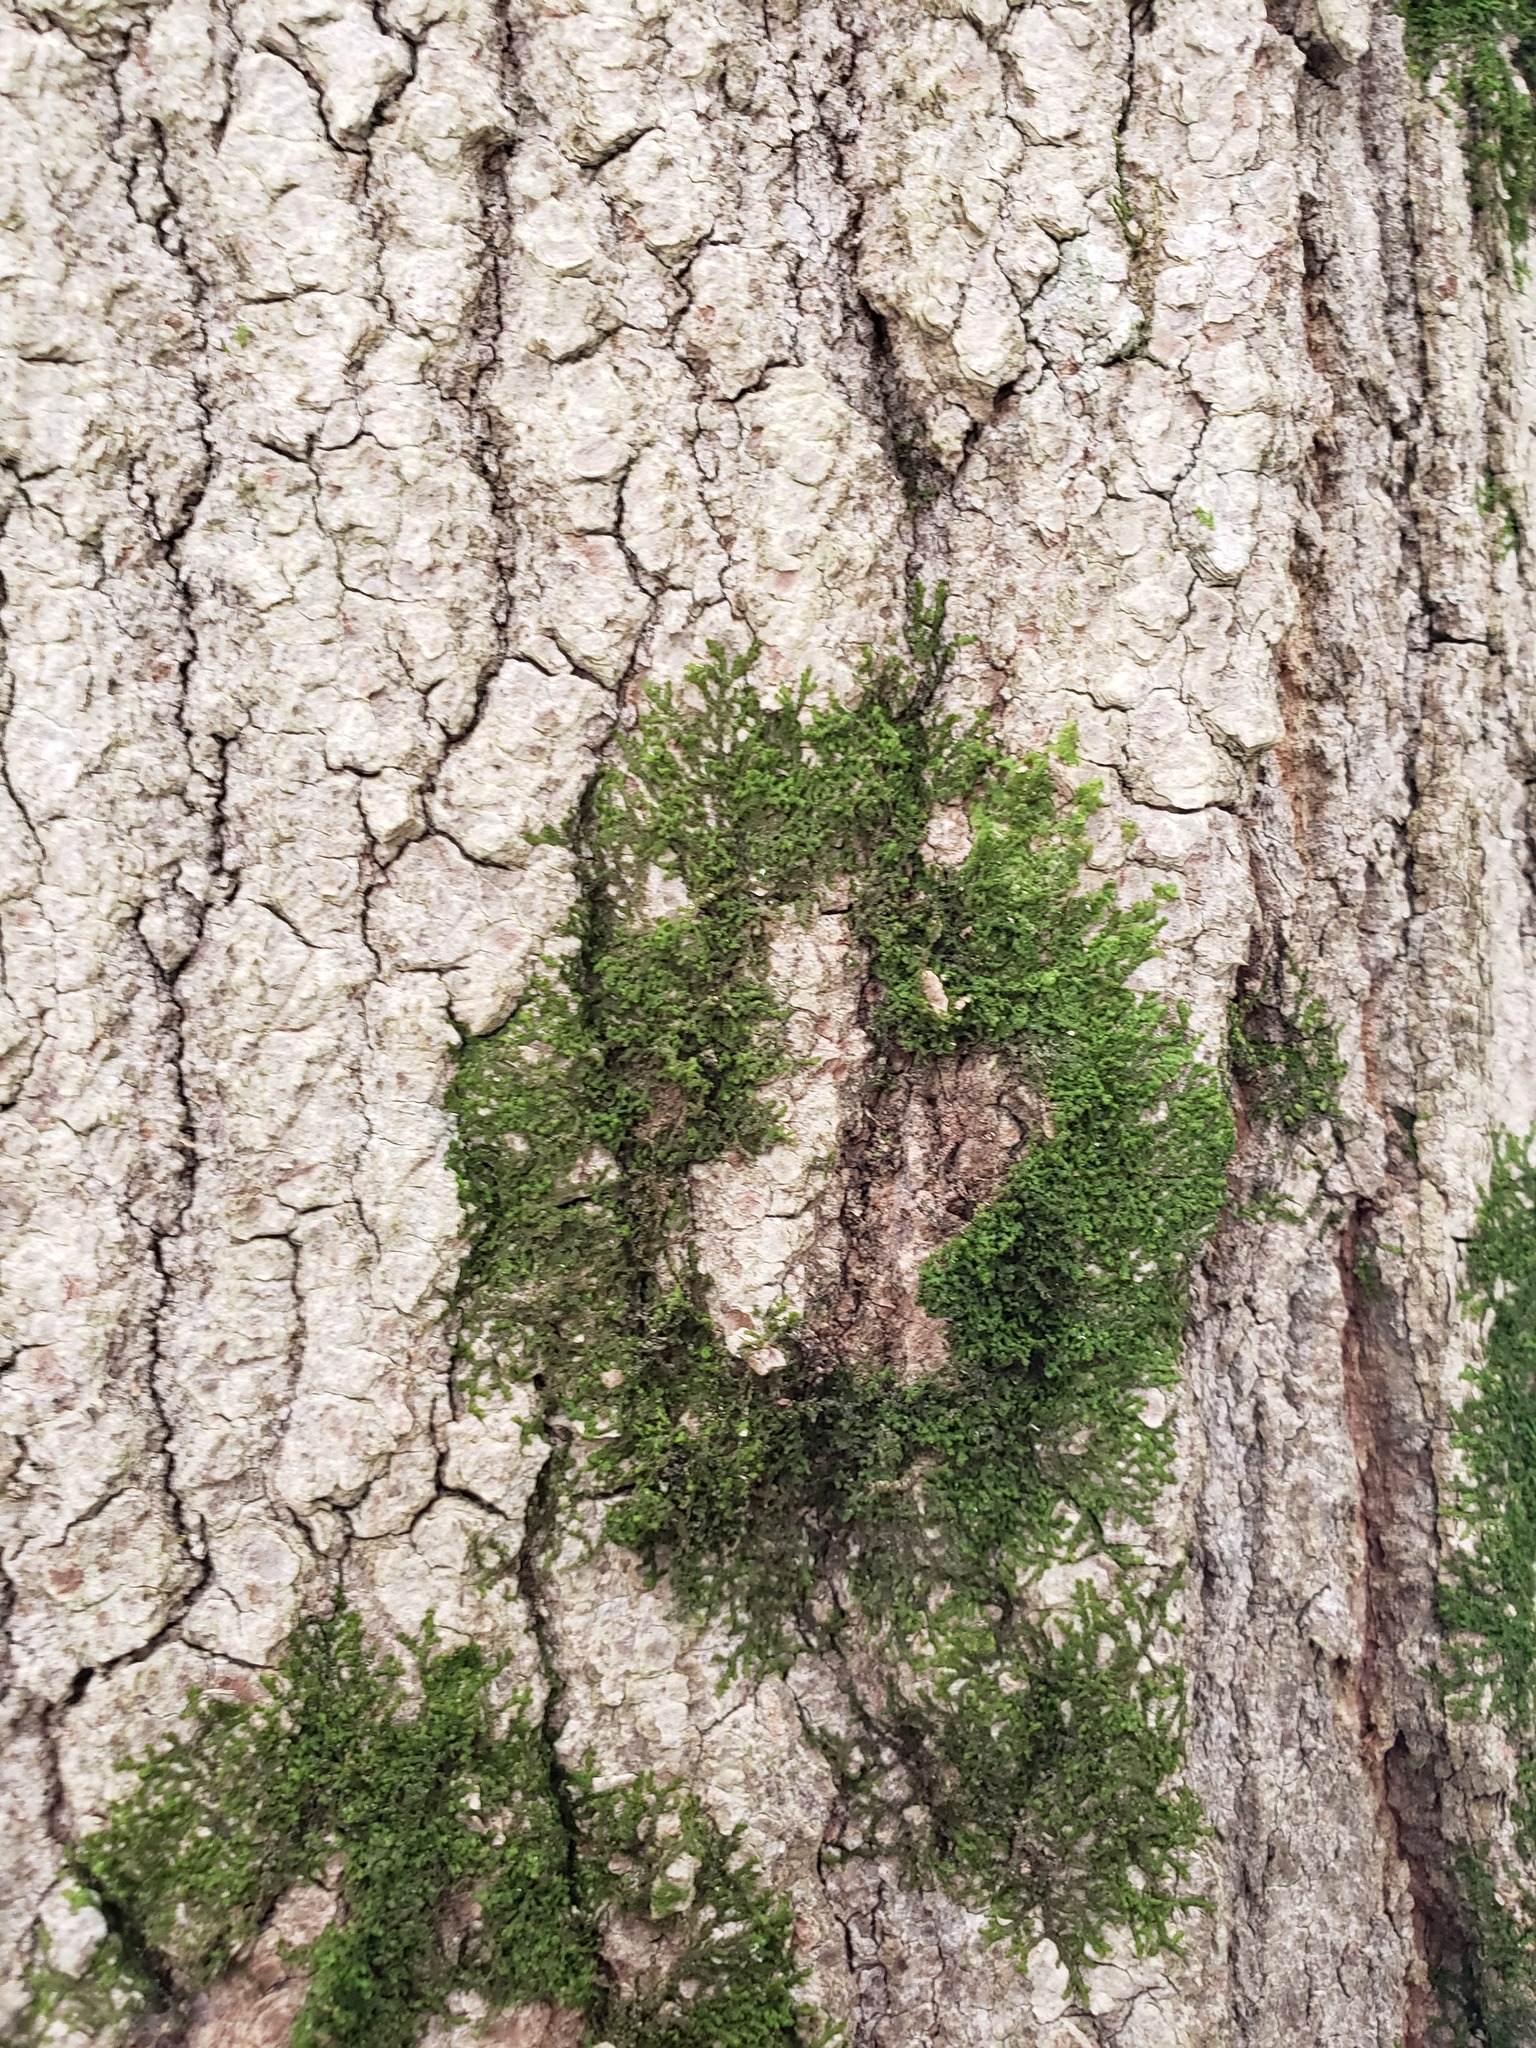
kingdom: Plantae
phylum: Marchantiophyta
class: Jungermanniopsida
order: Porellales
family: Radulaceae
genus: Radula
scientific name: Radula complanata
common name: Flat-leaved scalewort
